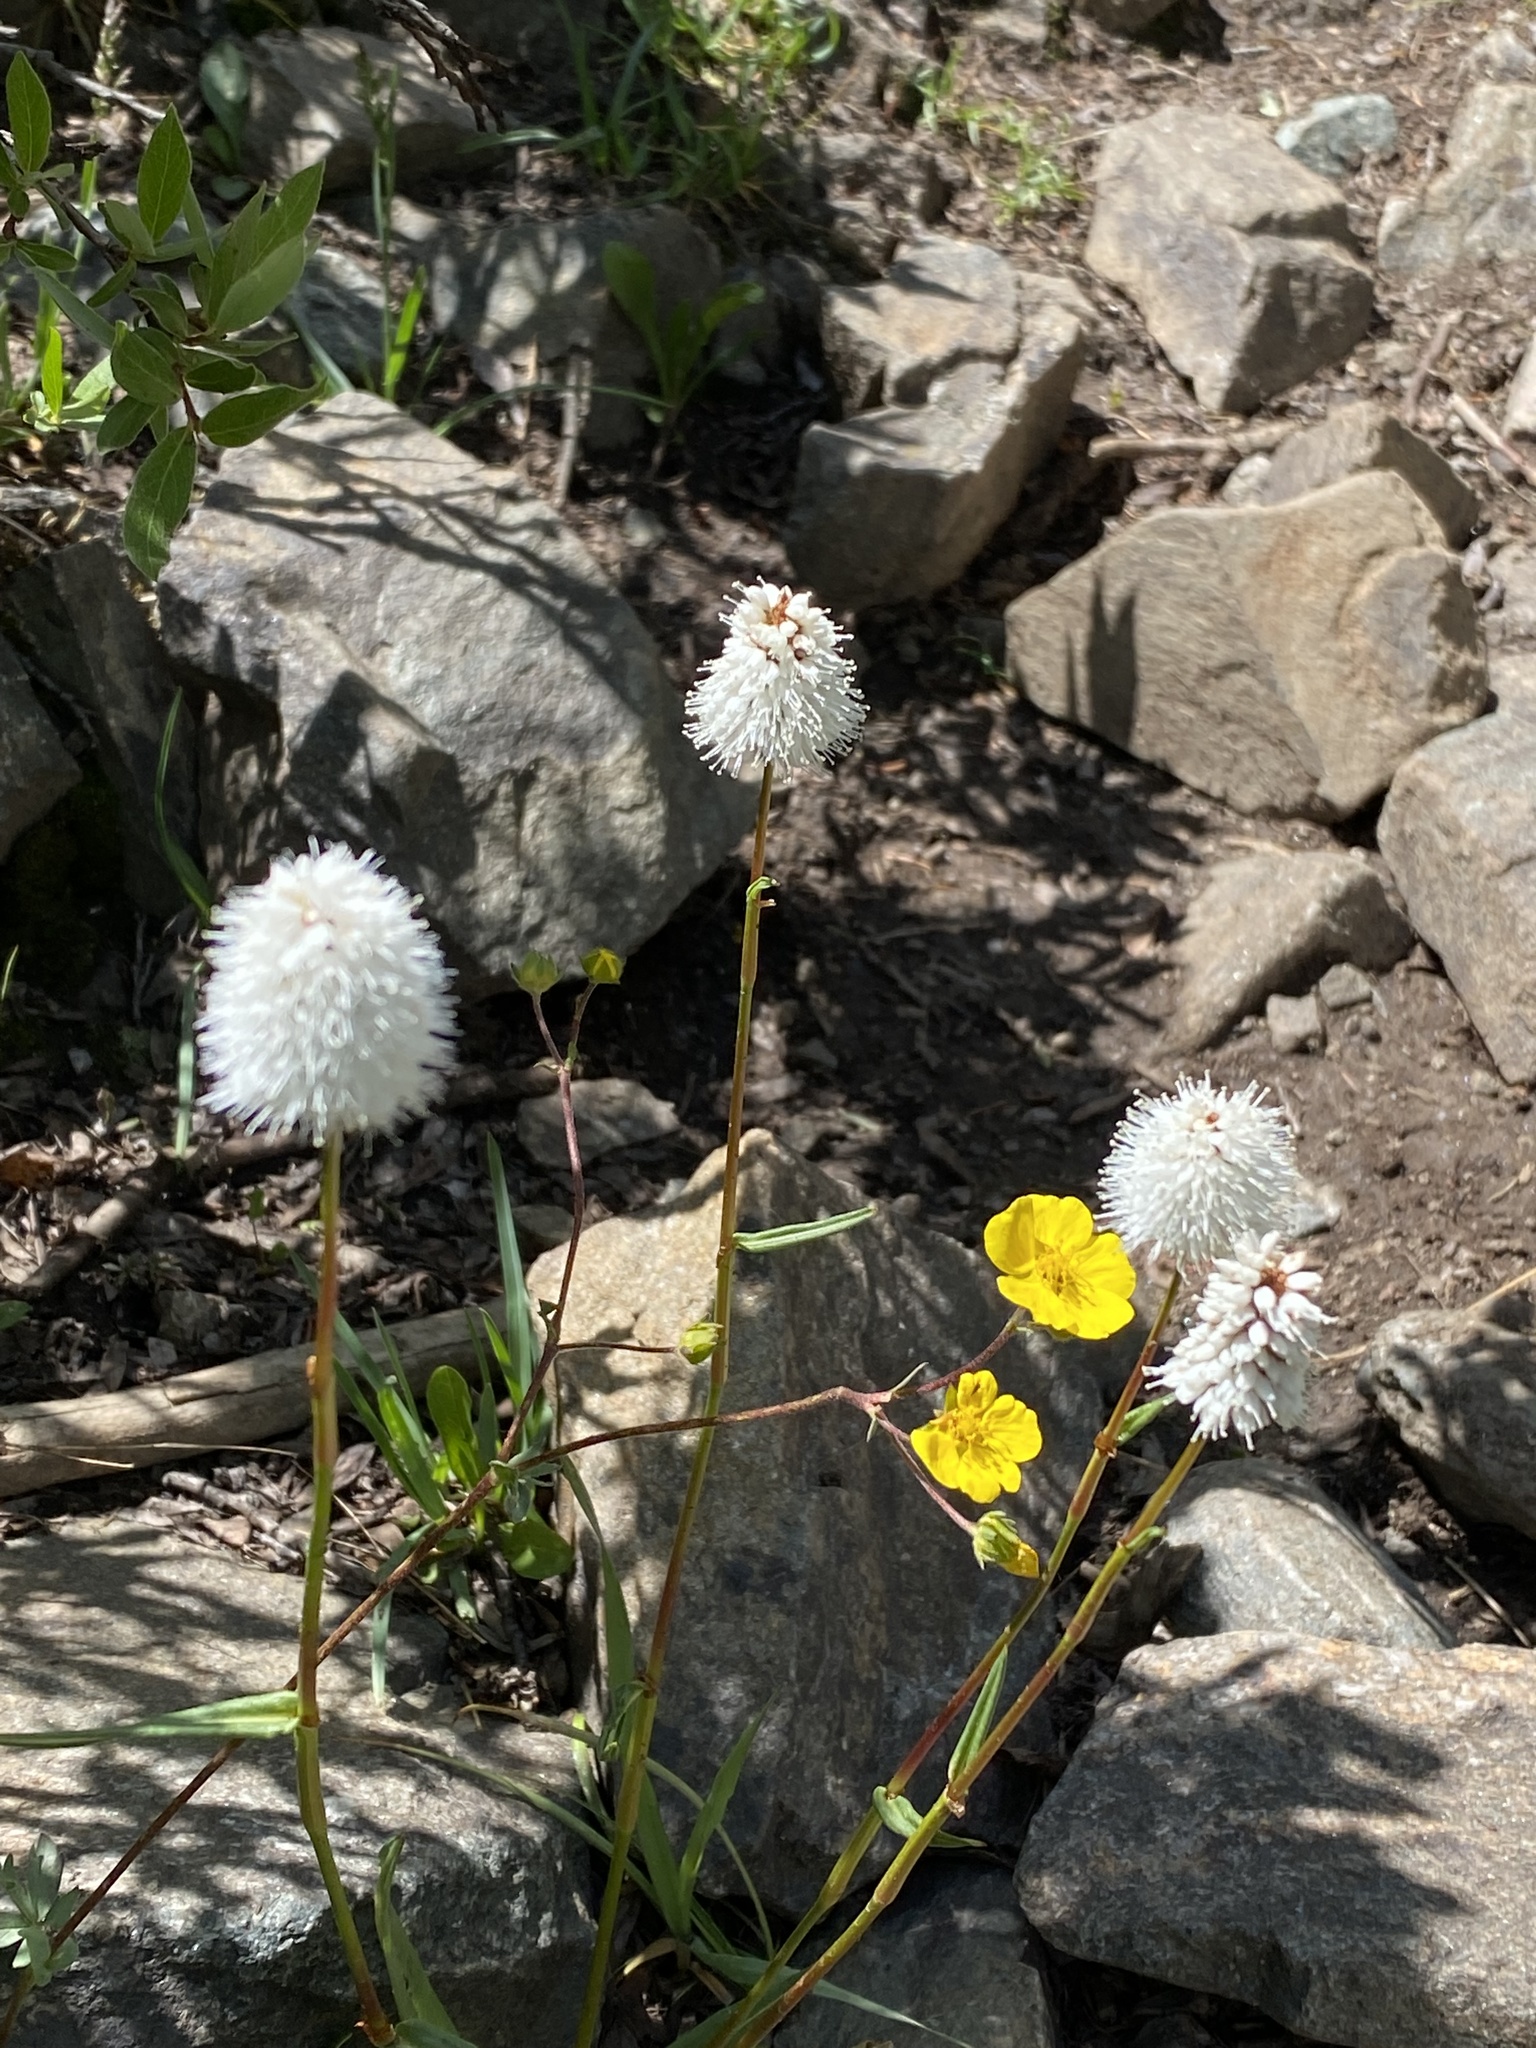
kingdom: Plantae
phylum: Tracheophyta
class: Magnoliopsida
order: Caryophyllales
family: Polygonaceae
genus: Bistorta
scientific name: Bistorta bistortoides
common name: American bistort
